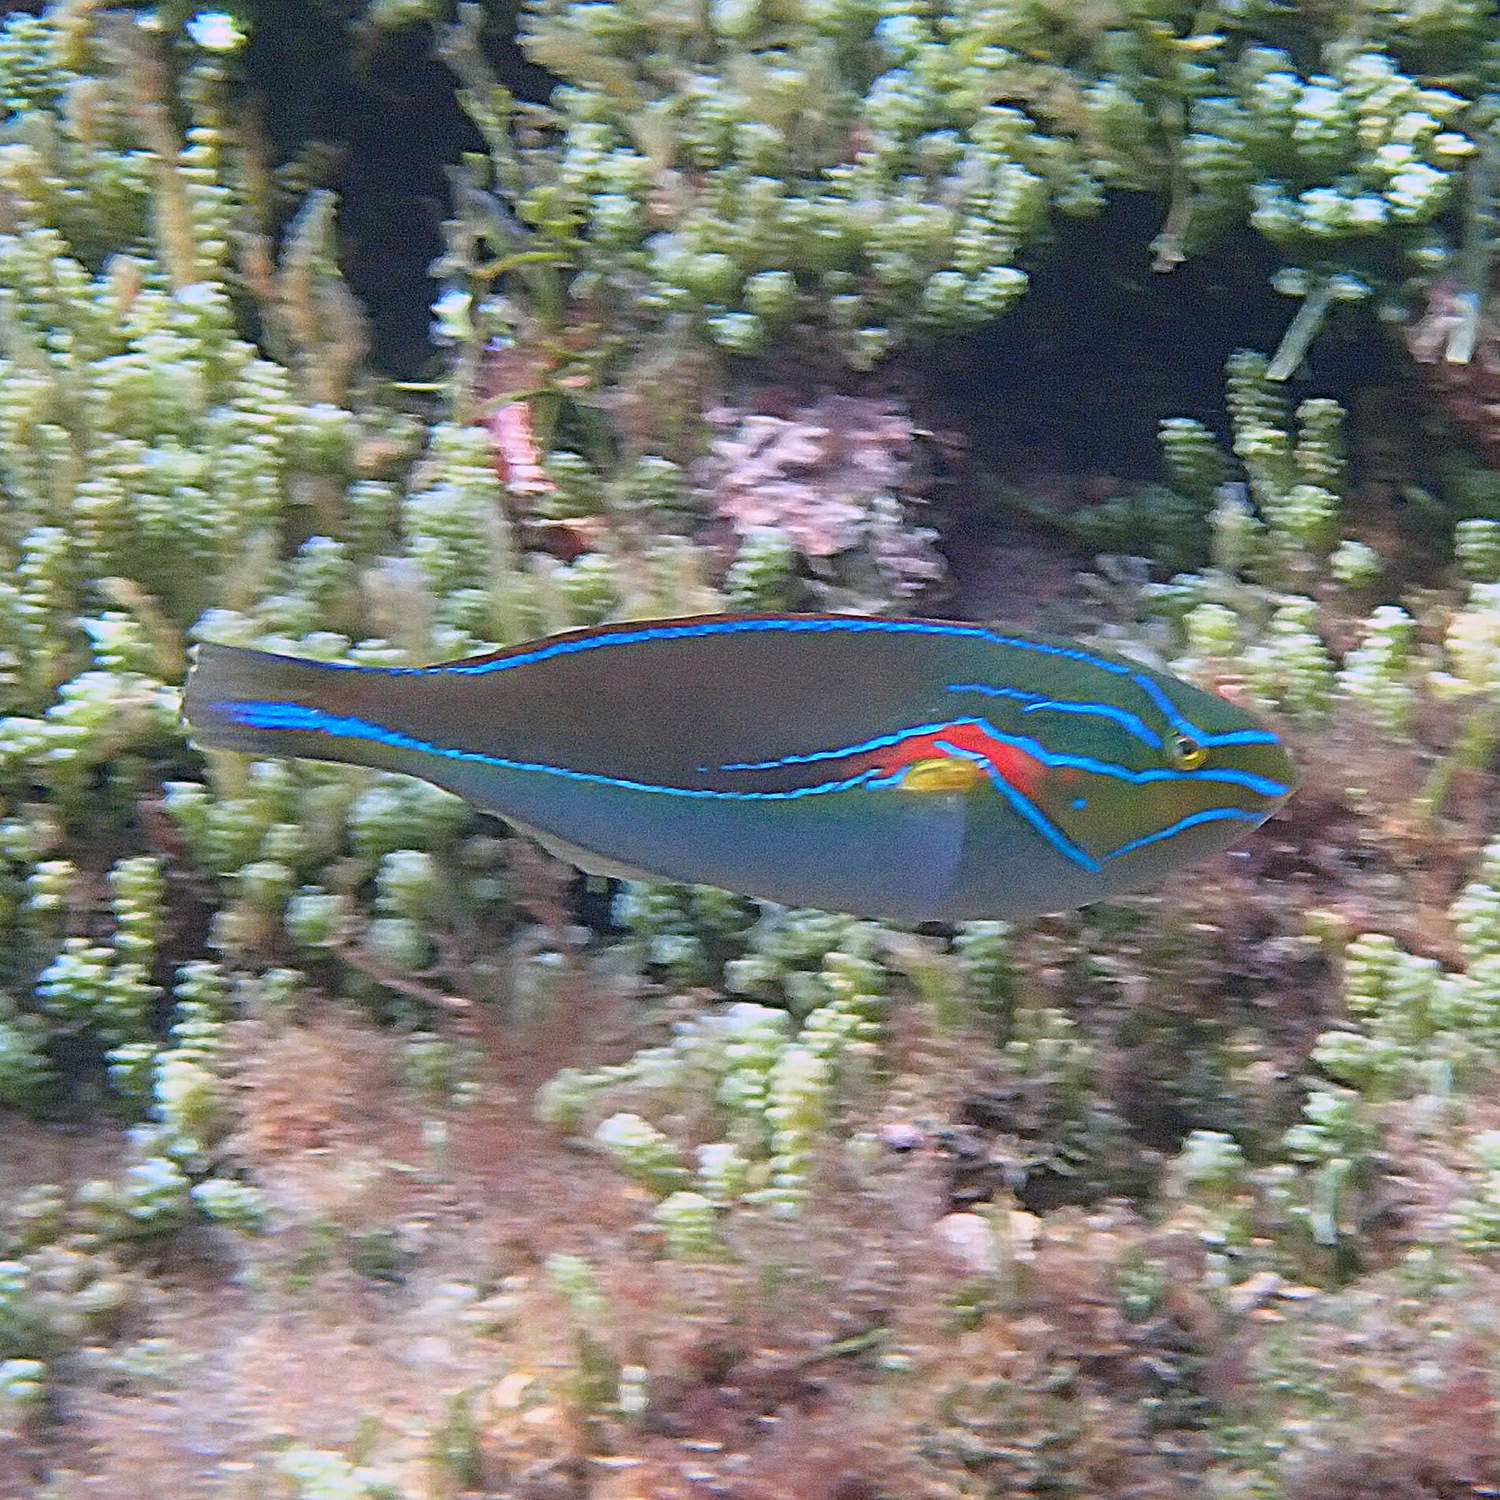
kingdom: Animalia
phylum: Chordata
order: Perciformes
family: Labridae
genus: Stethojulis
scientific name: Stethojulis bandanensis
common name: Red shoulder wrasse
